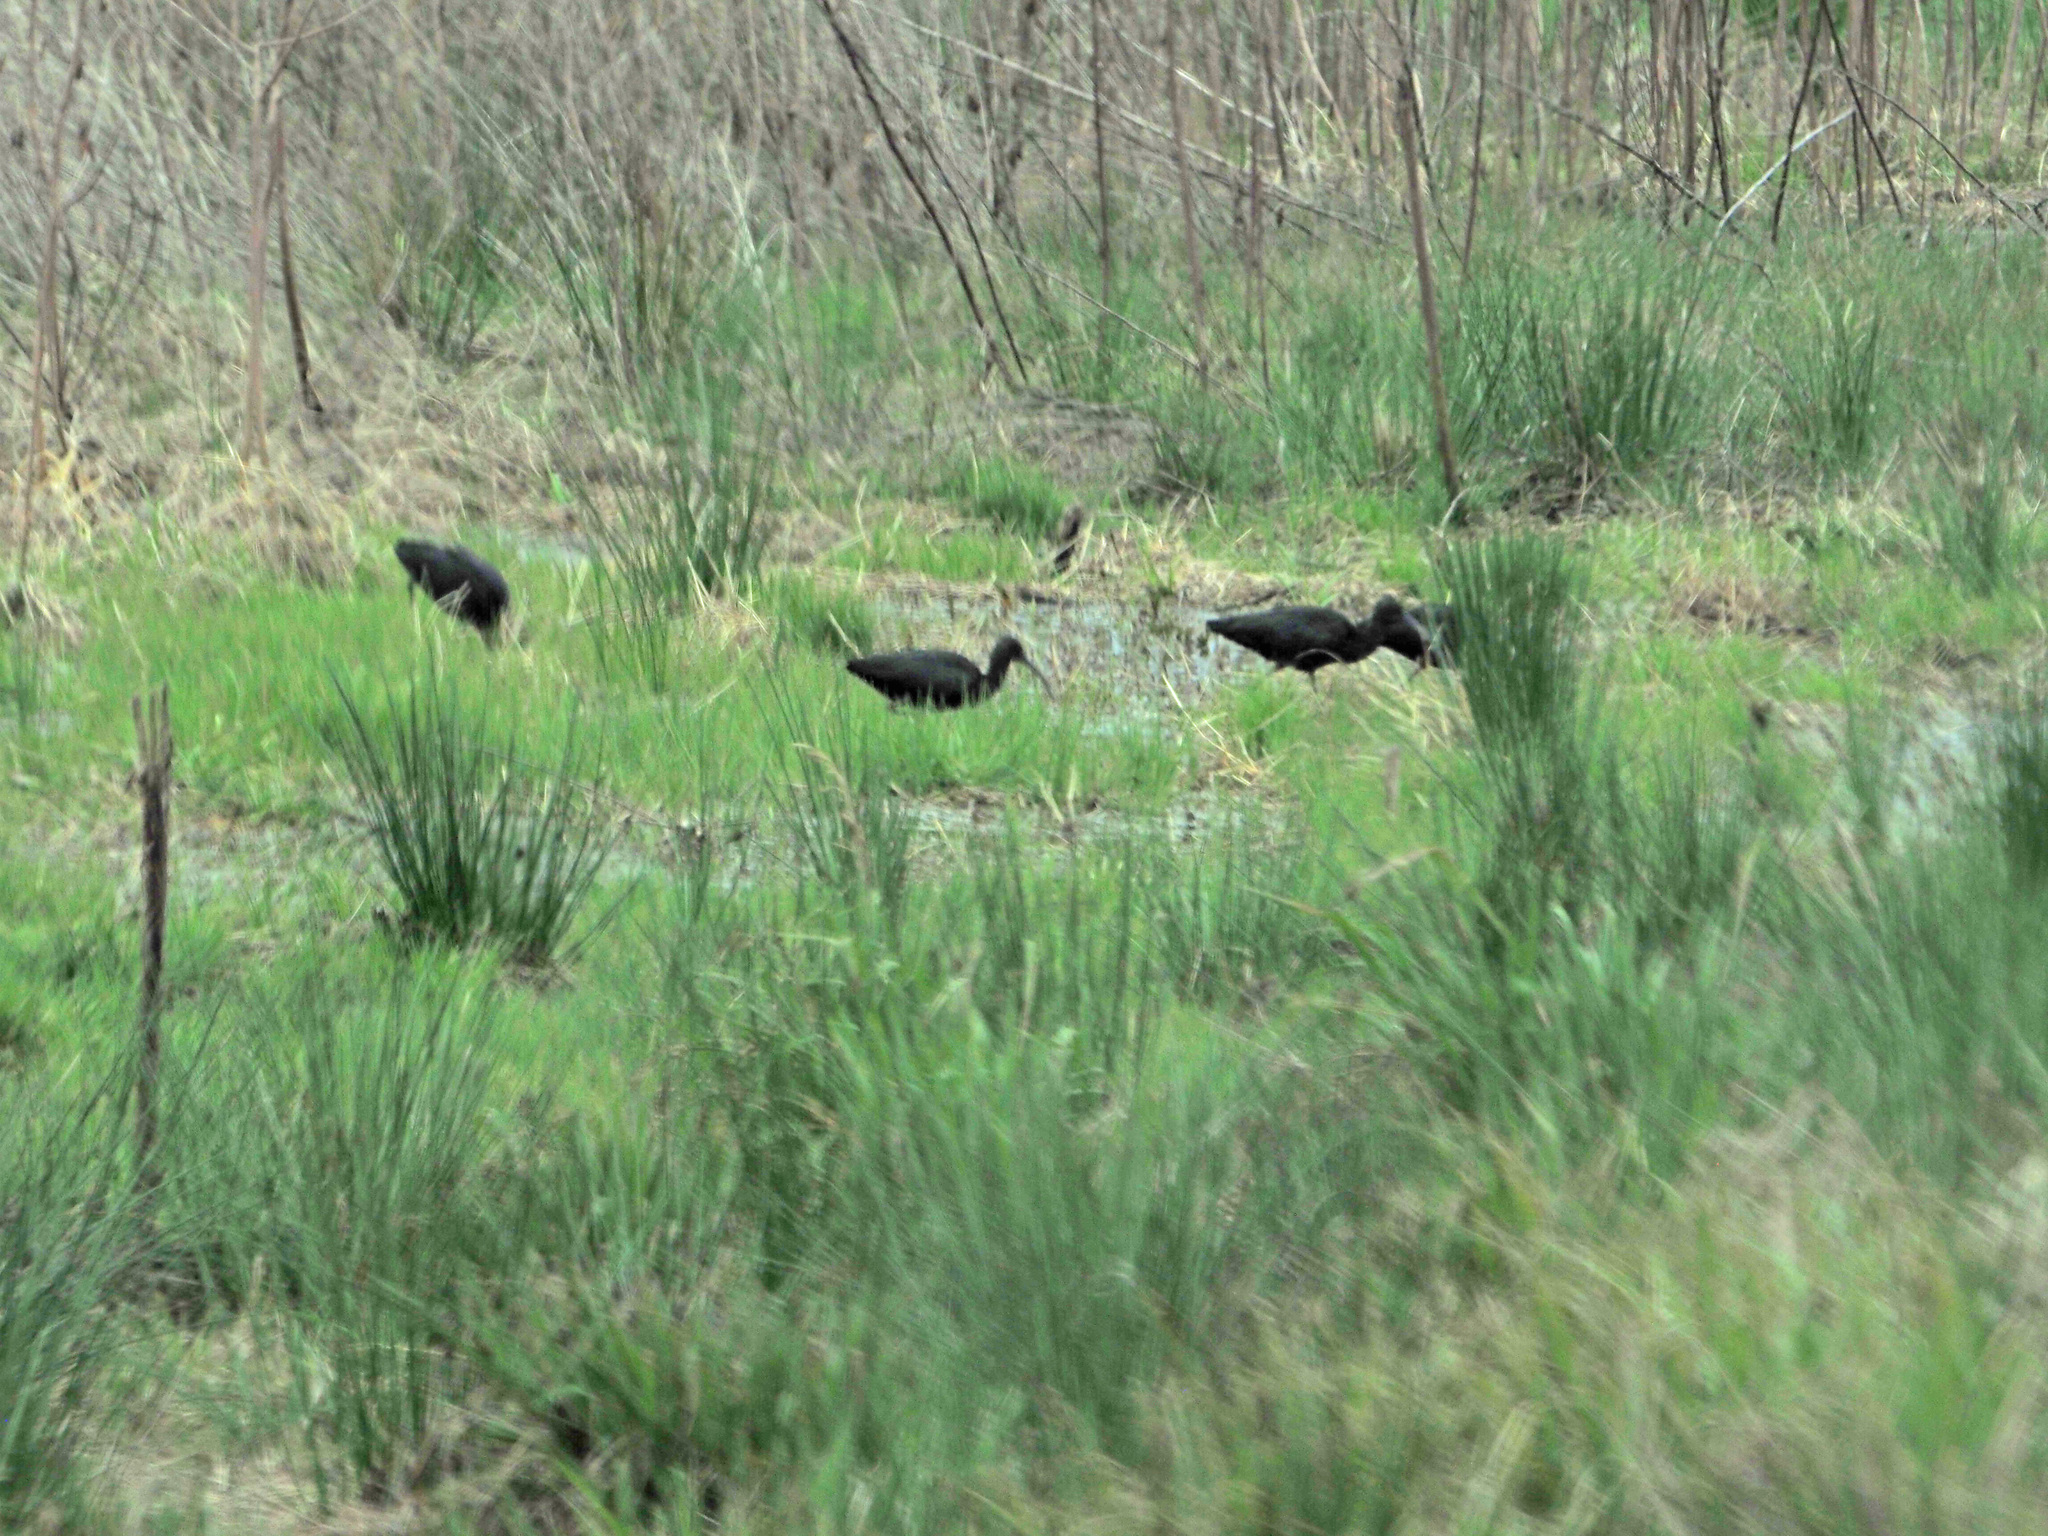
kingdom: Animalia
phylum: Chordata
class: Aves
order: Pelecaniformes
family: Threskiornithidae
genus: Plegadis
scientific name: Plegadis falcinellus
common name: Glossy ibis
